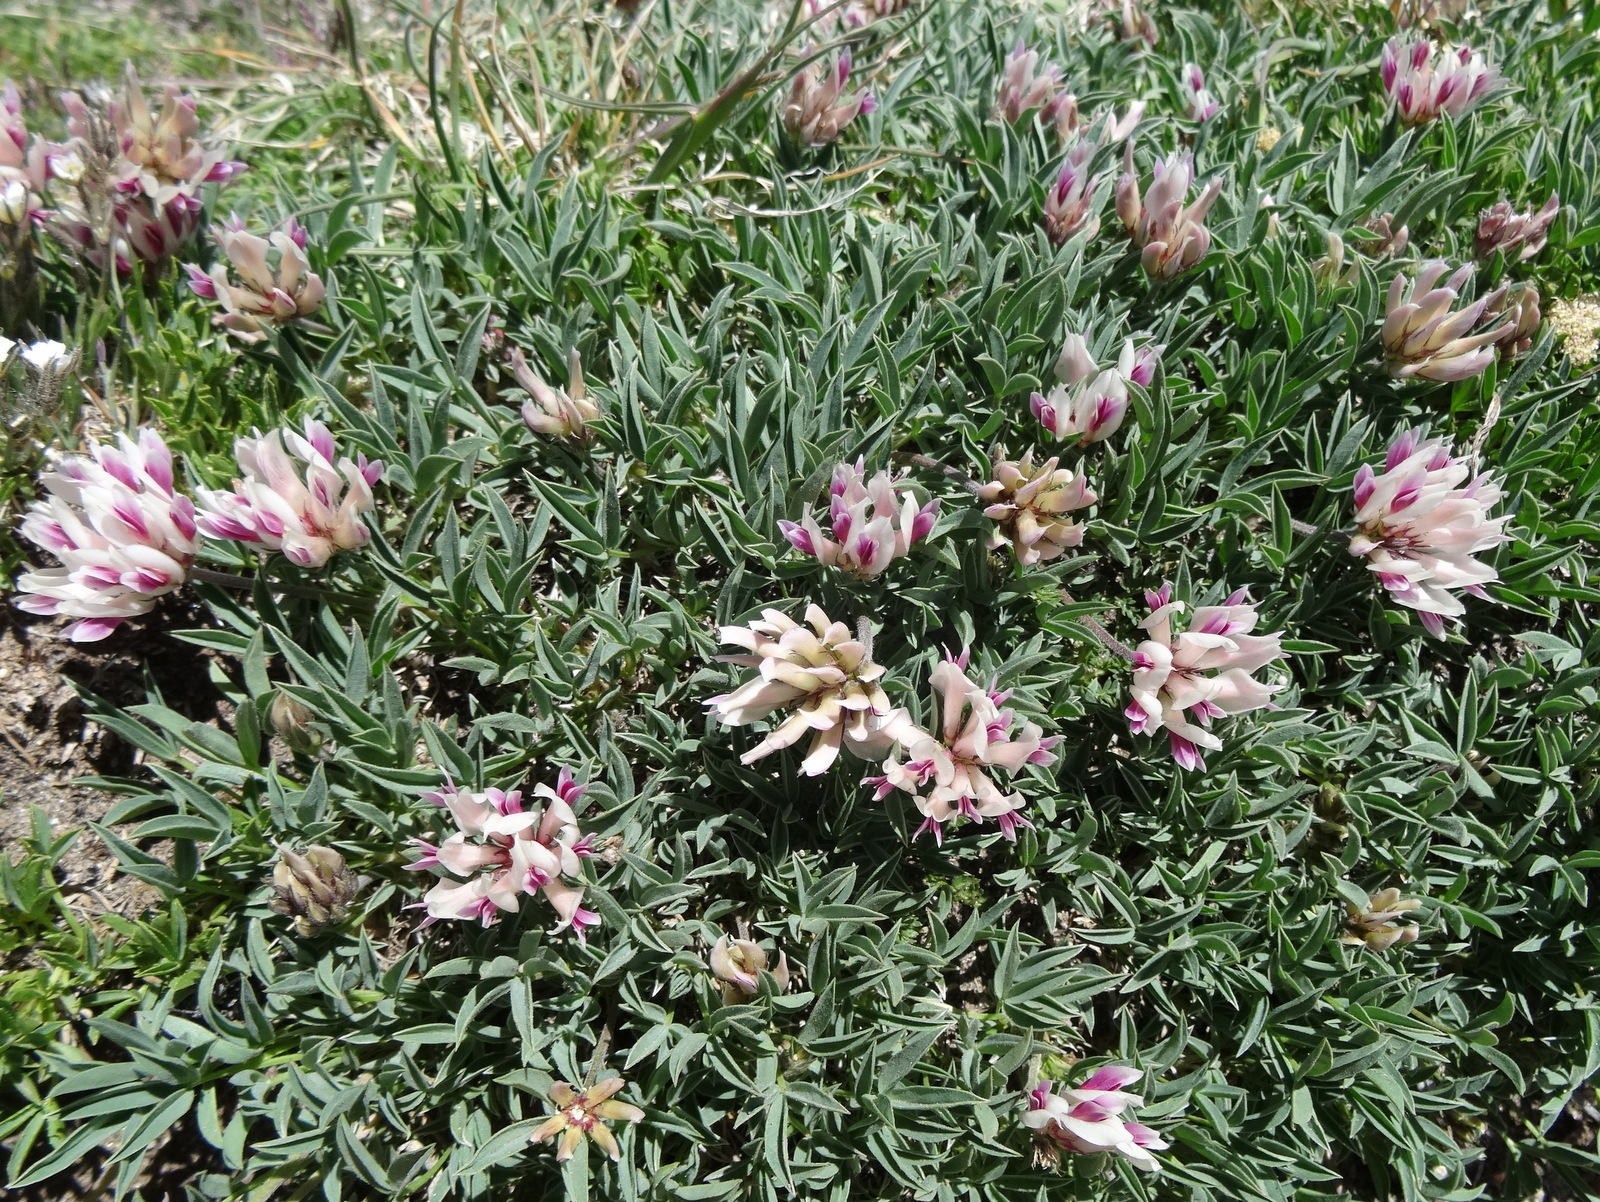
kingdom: Plantae
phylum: Tracheophyta
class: Magnoliopsida
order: Fabales
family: Fabaceae
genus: Trifolium
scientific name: Trifolium dasyphyllum
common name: Whip-root clover
